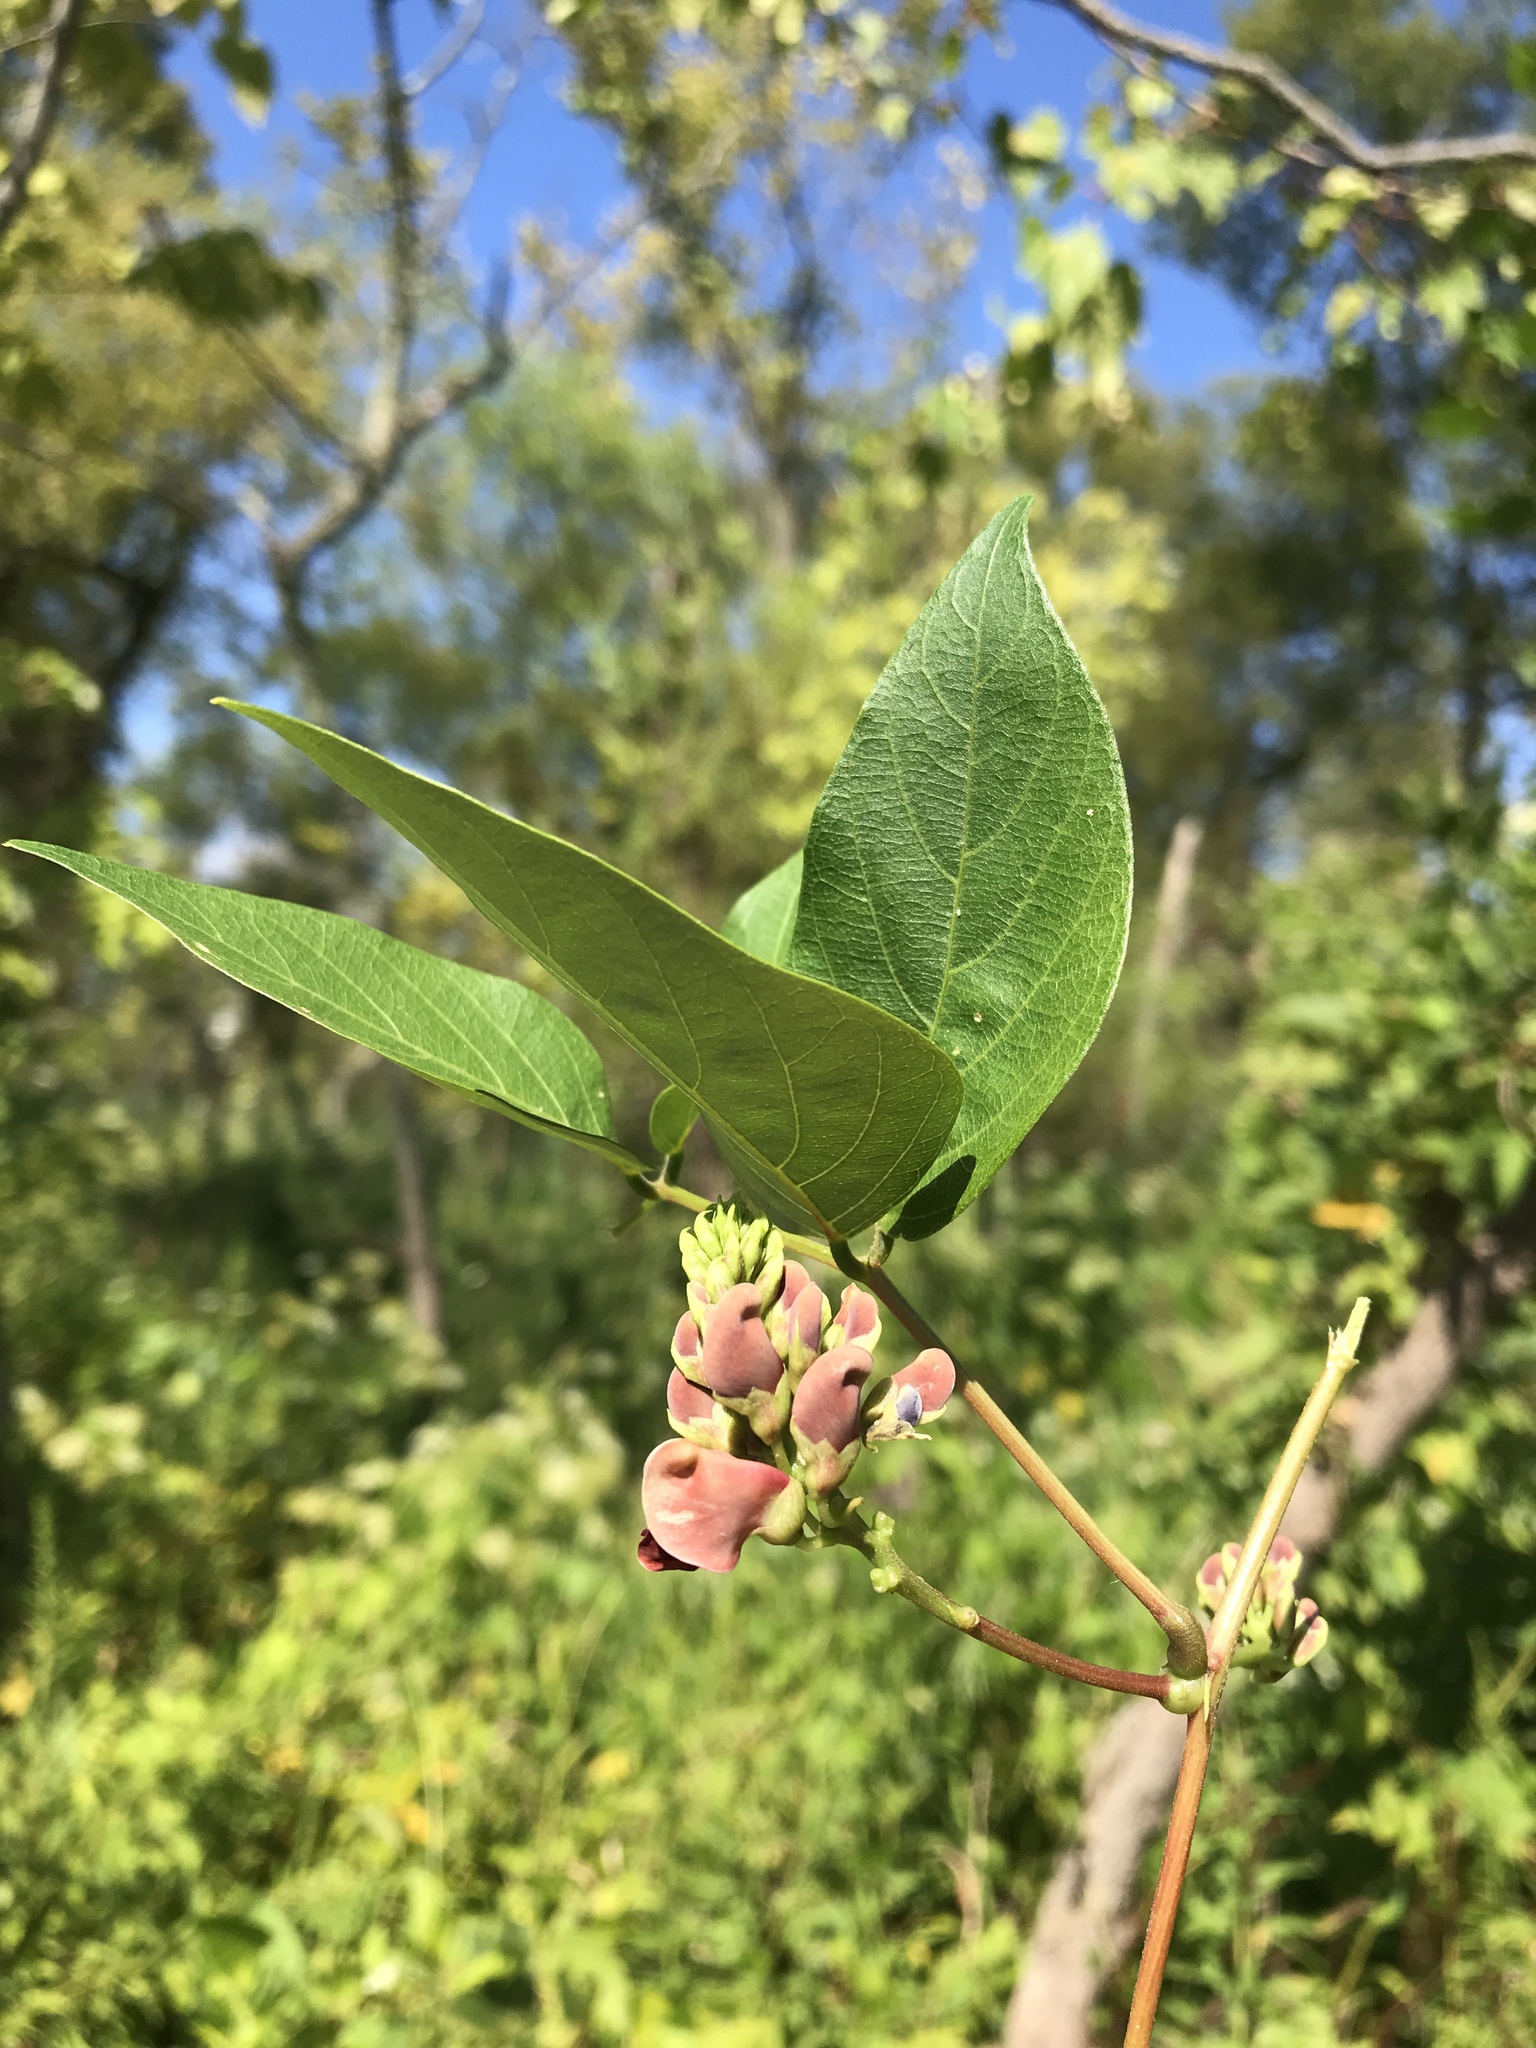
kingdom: Plantae
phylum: Tracheophyta
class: Magnoliopsida
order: Fabales
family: Fabaceae
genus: Apios
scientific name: Apios americana
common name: American potato-bean
